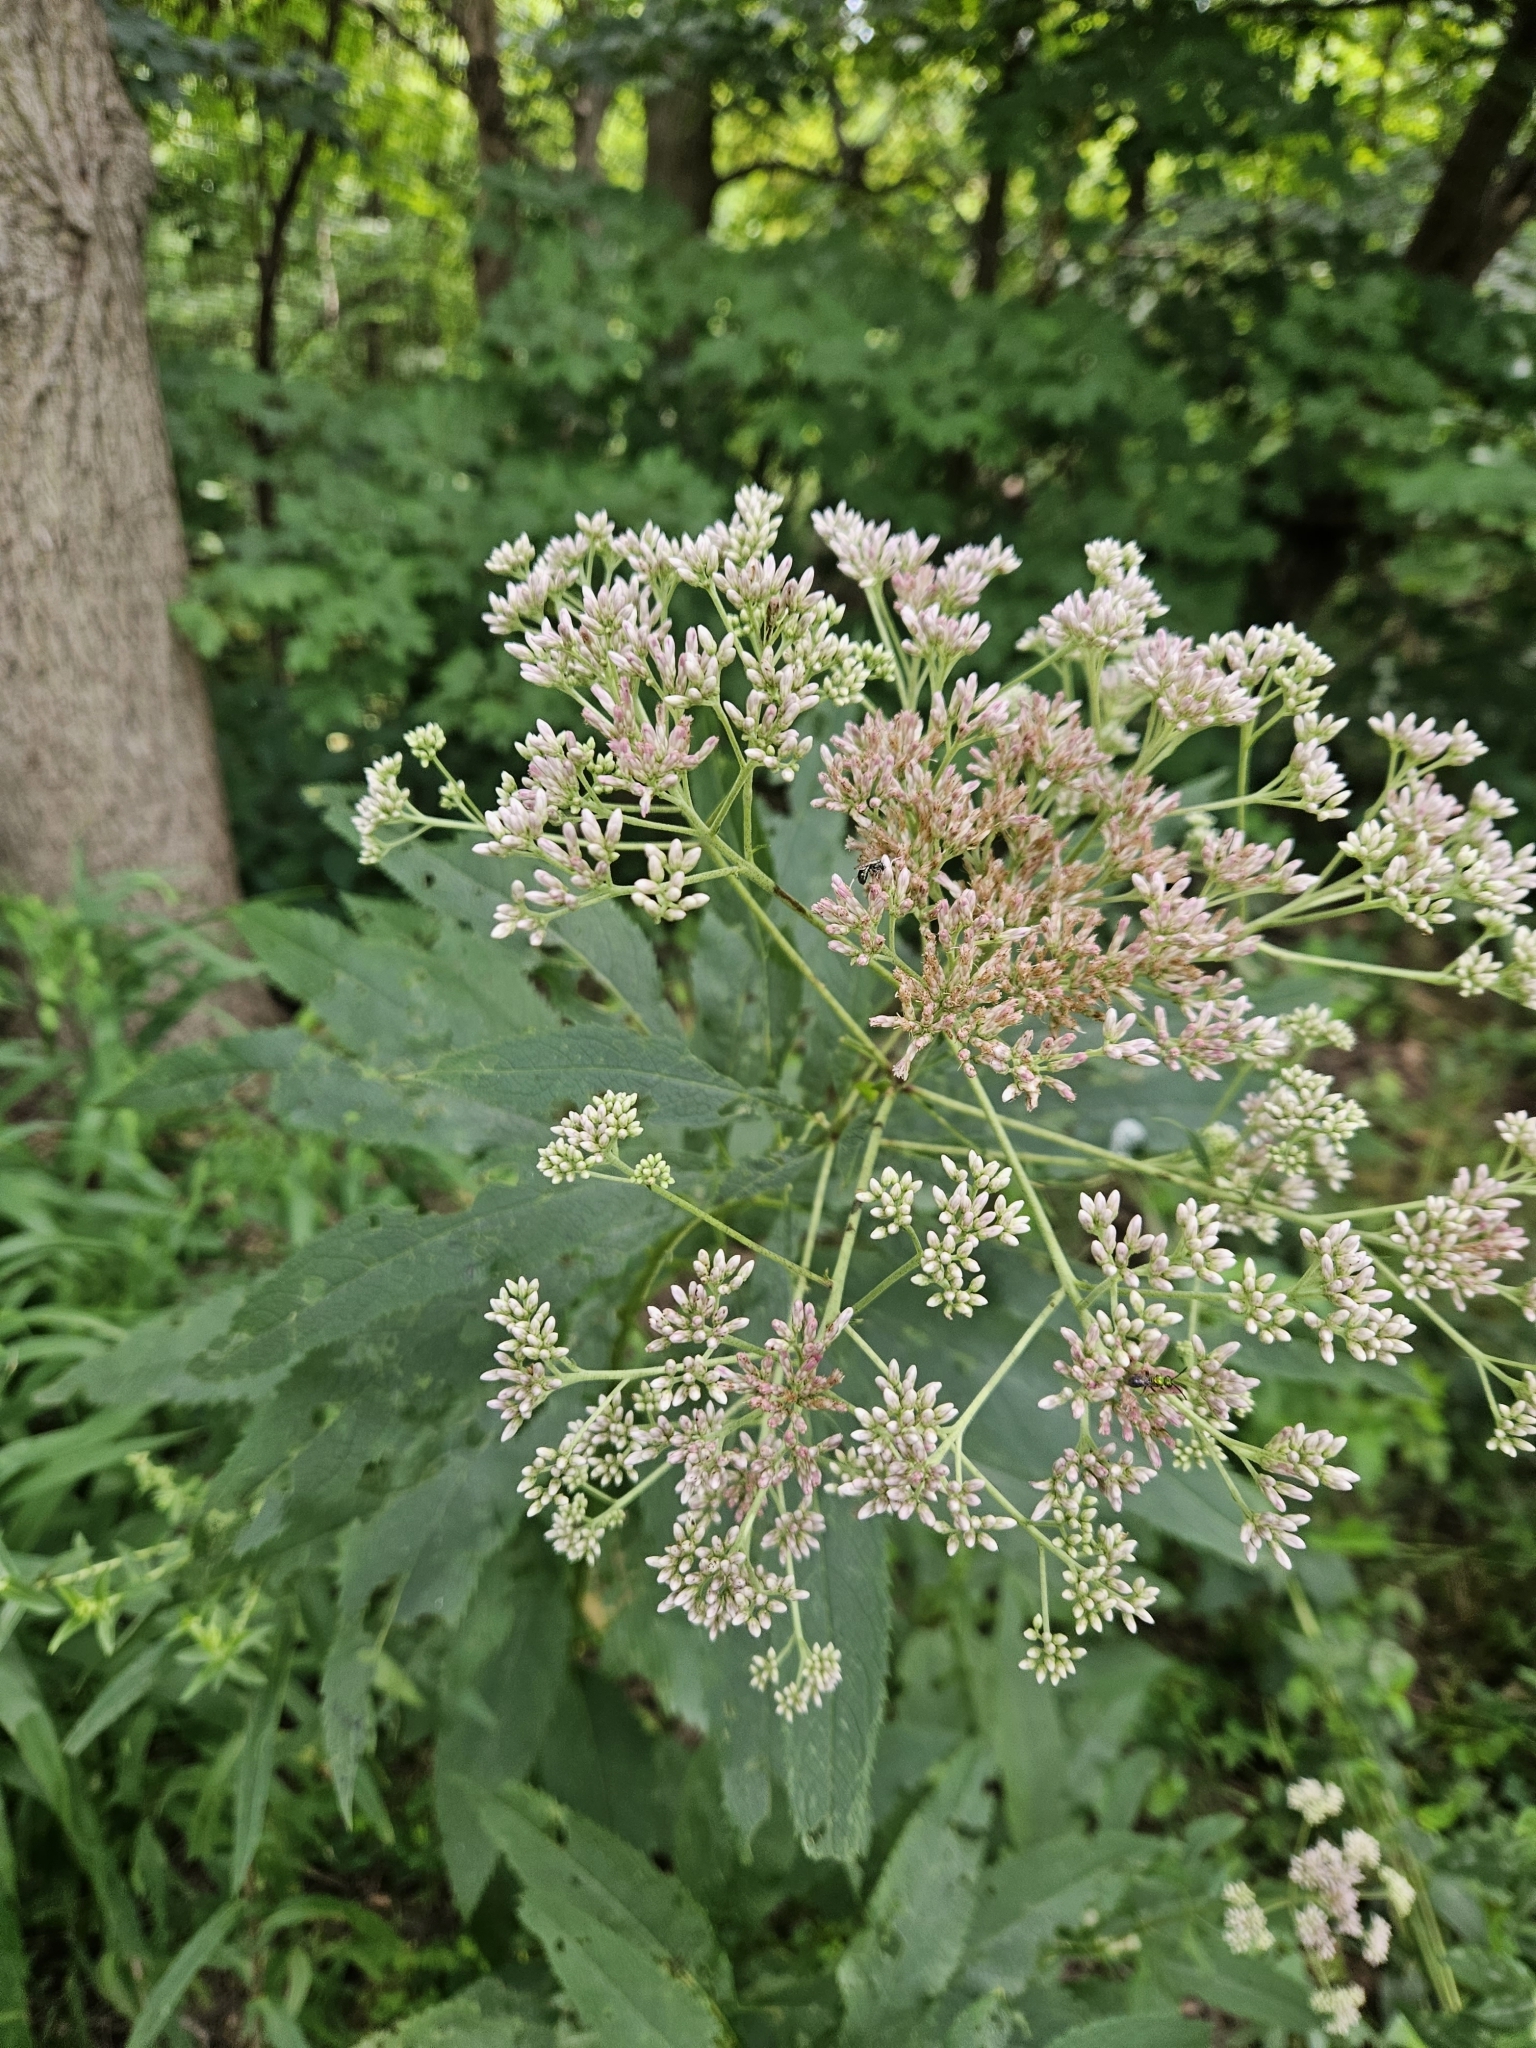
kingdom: Plantae
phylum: Tracheophyta
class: Magnoliopsida
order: Asterales
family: Asteraceae
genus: Eutrochium
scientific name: Eutrochium purpureum
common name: Gravelroot
